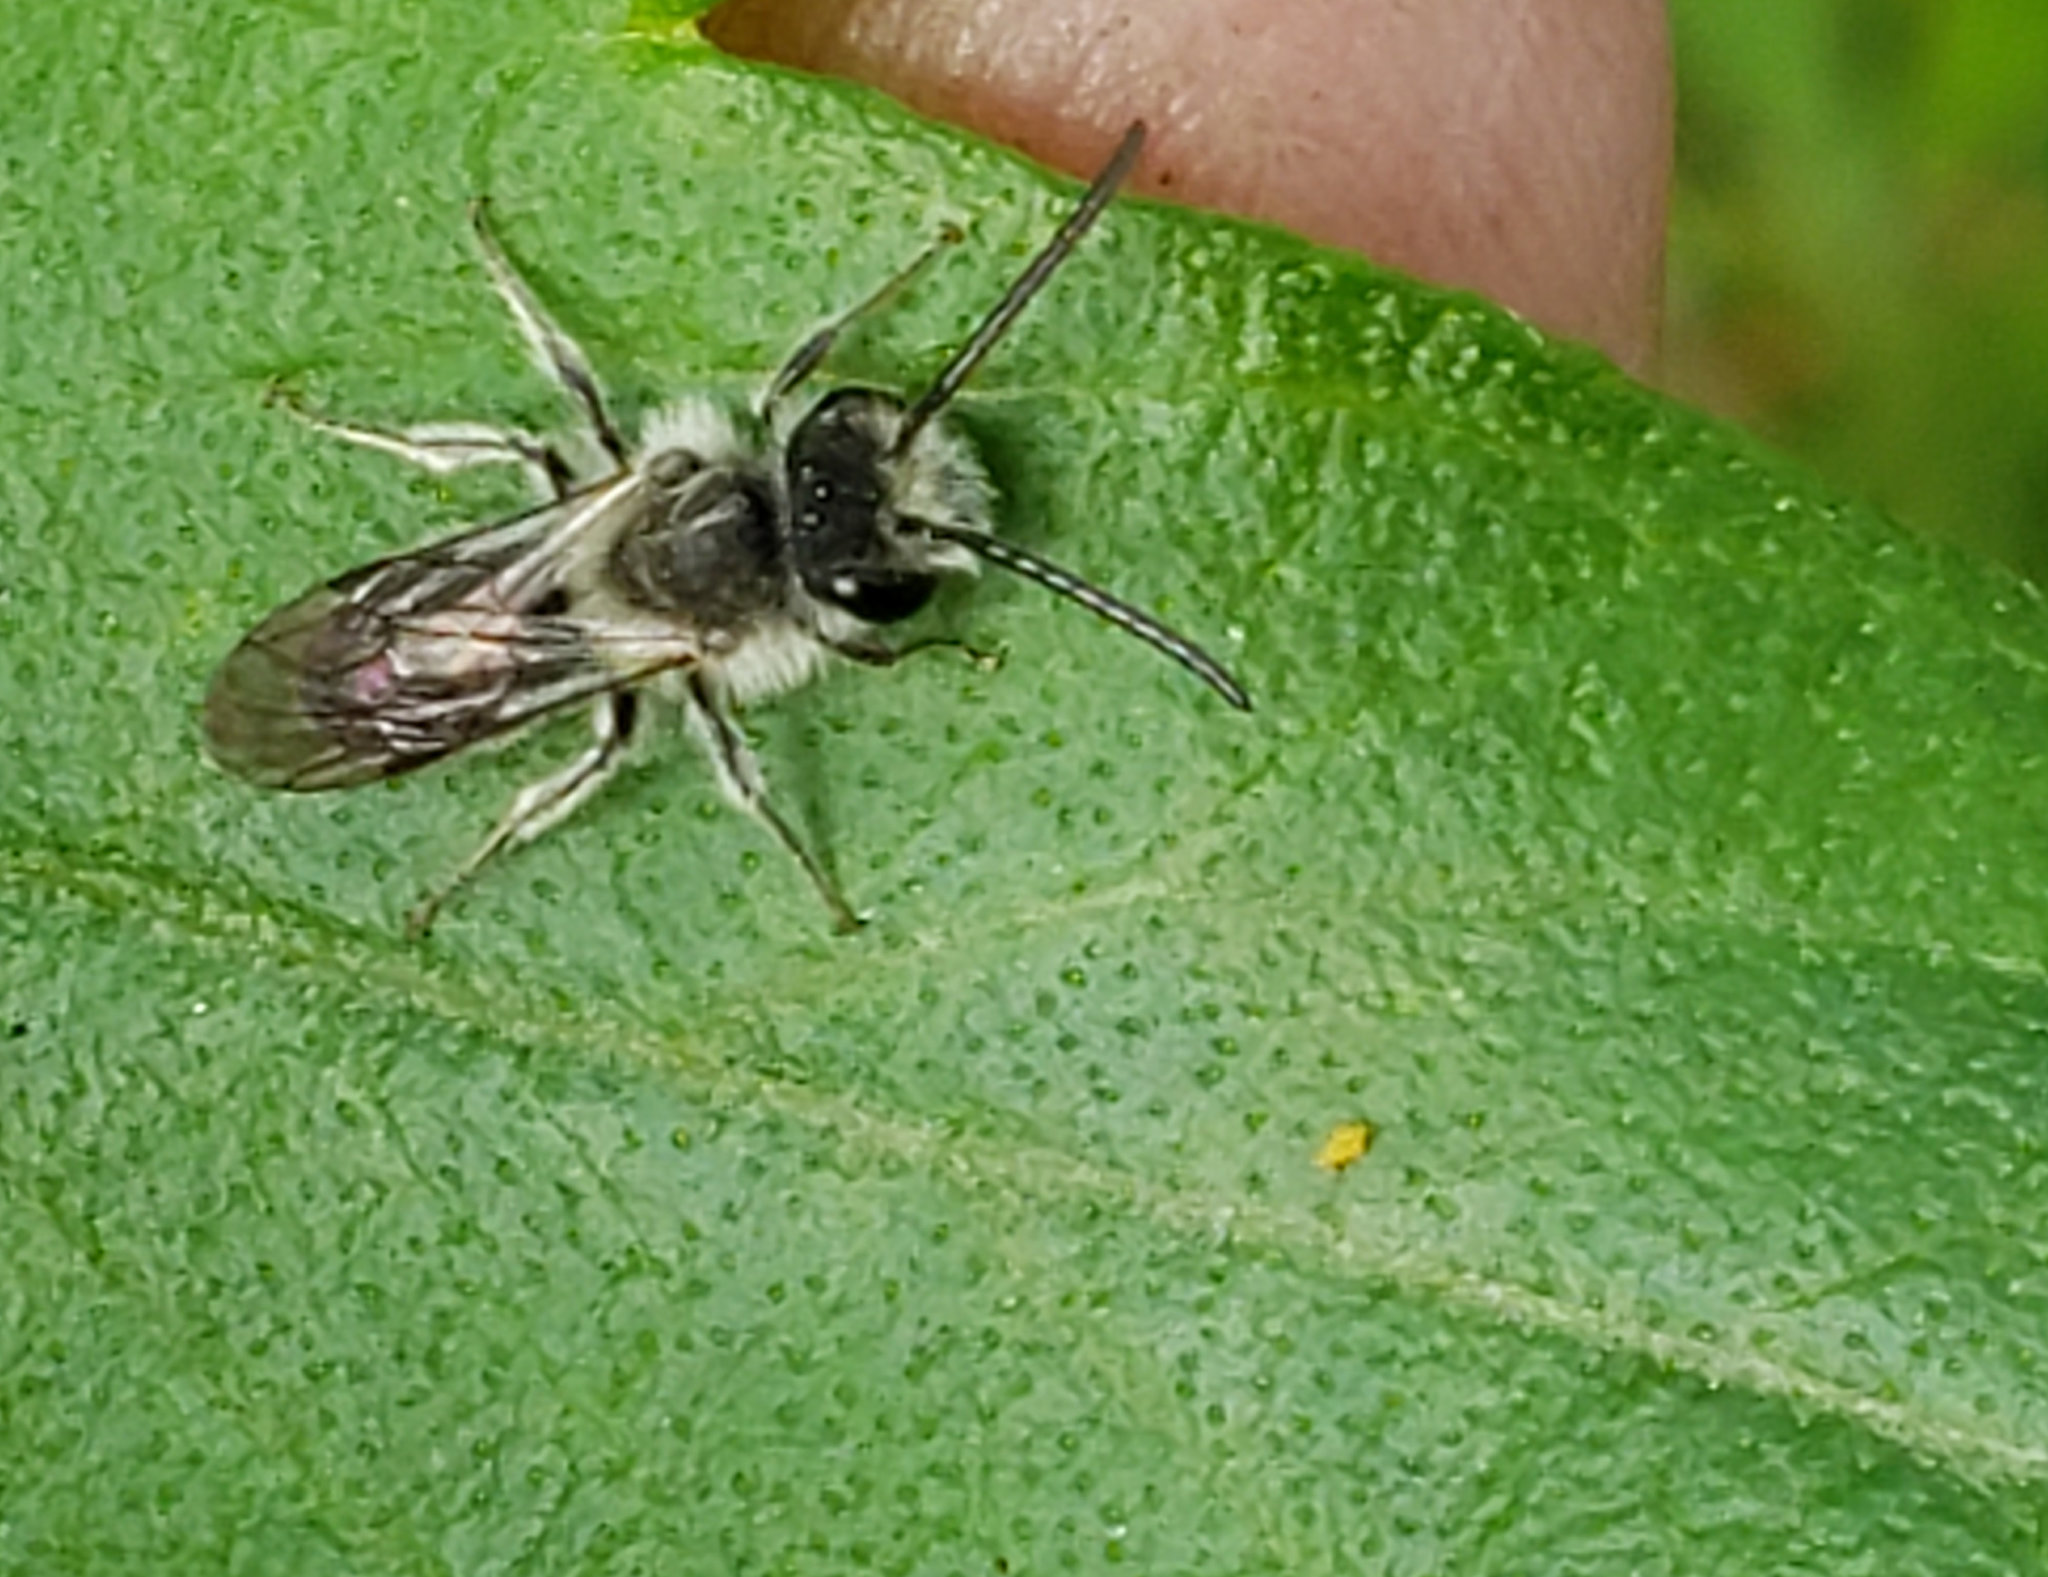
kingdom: Animalia
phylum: Arthropoda
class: Insecta
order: Hymenoptera
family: Andrenidae
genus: Andrena
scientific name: Andrena
